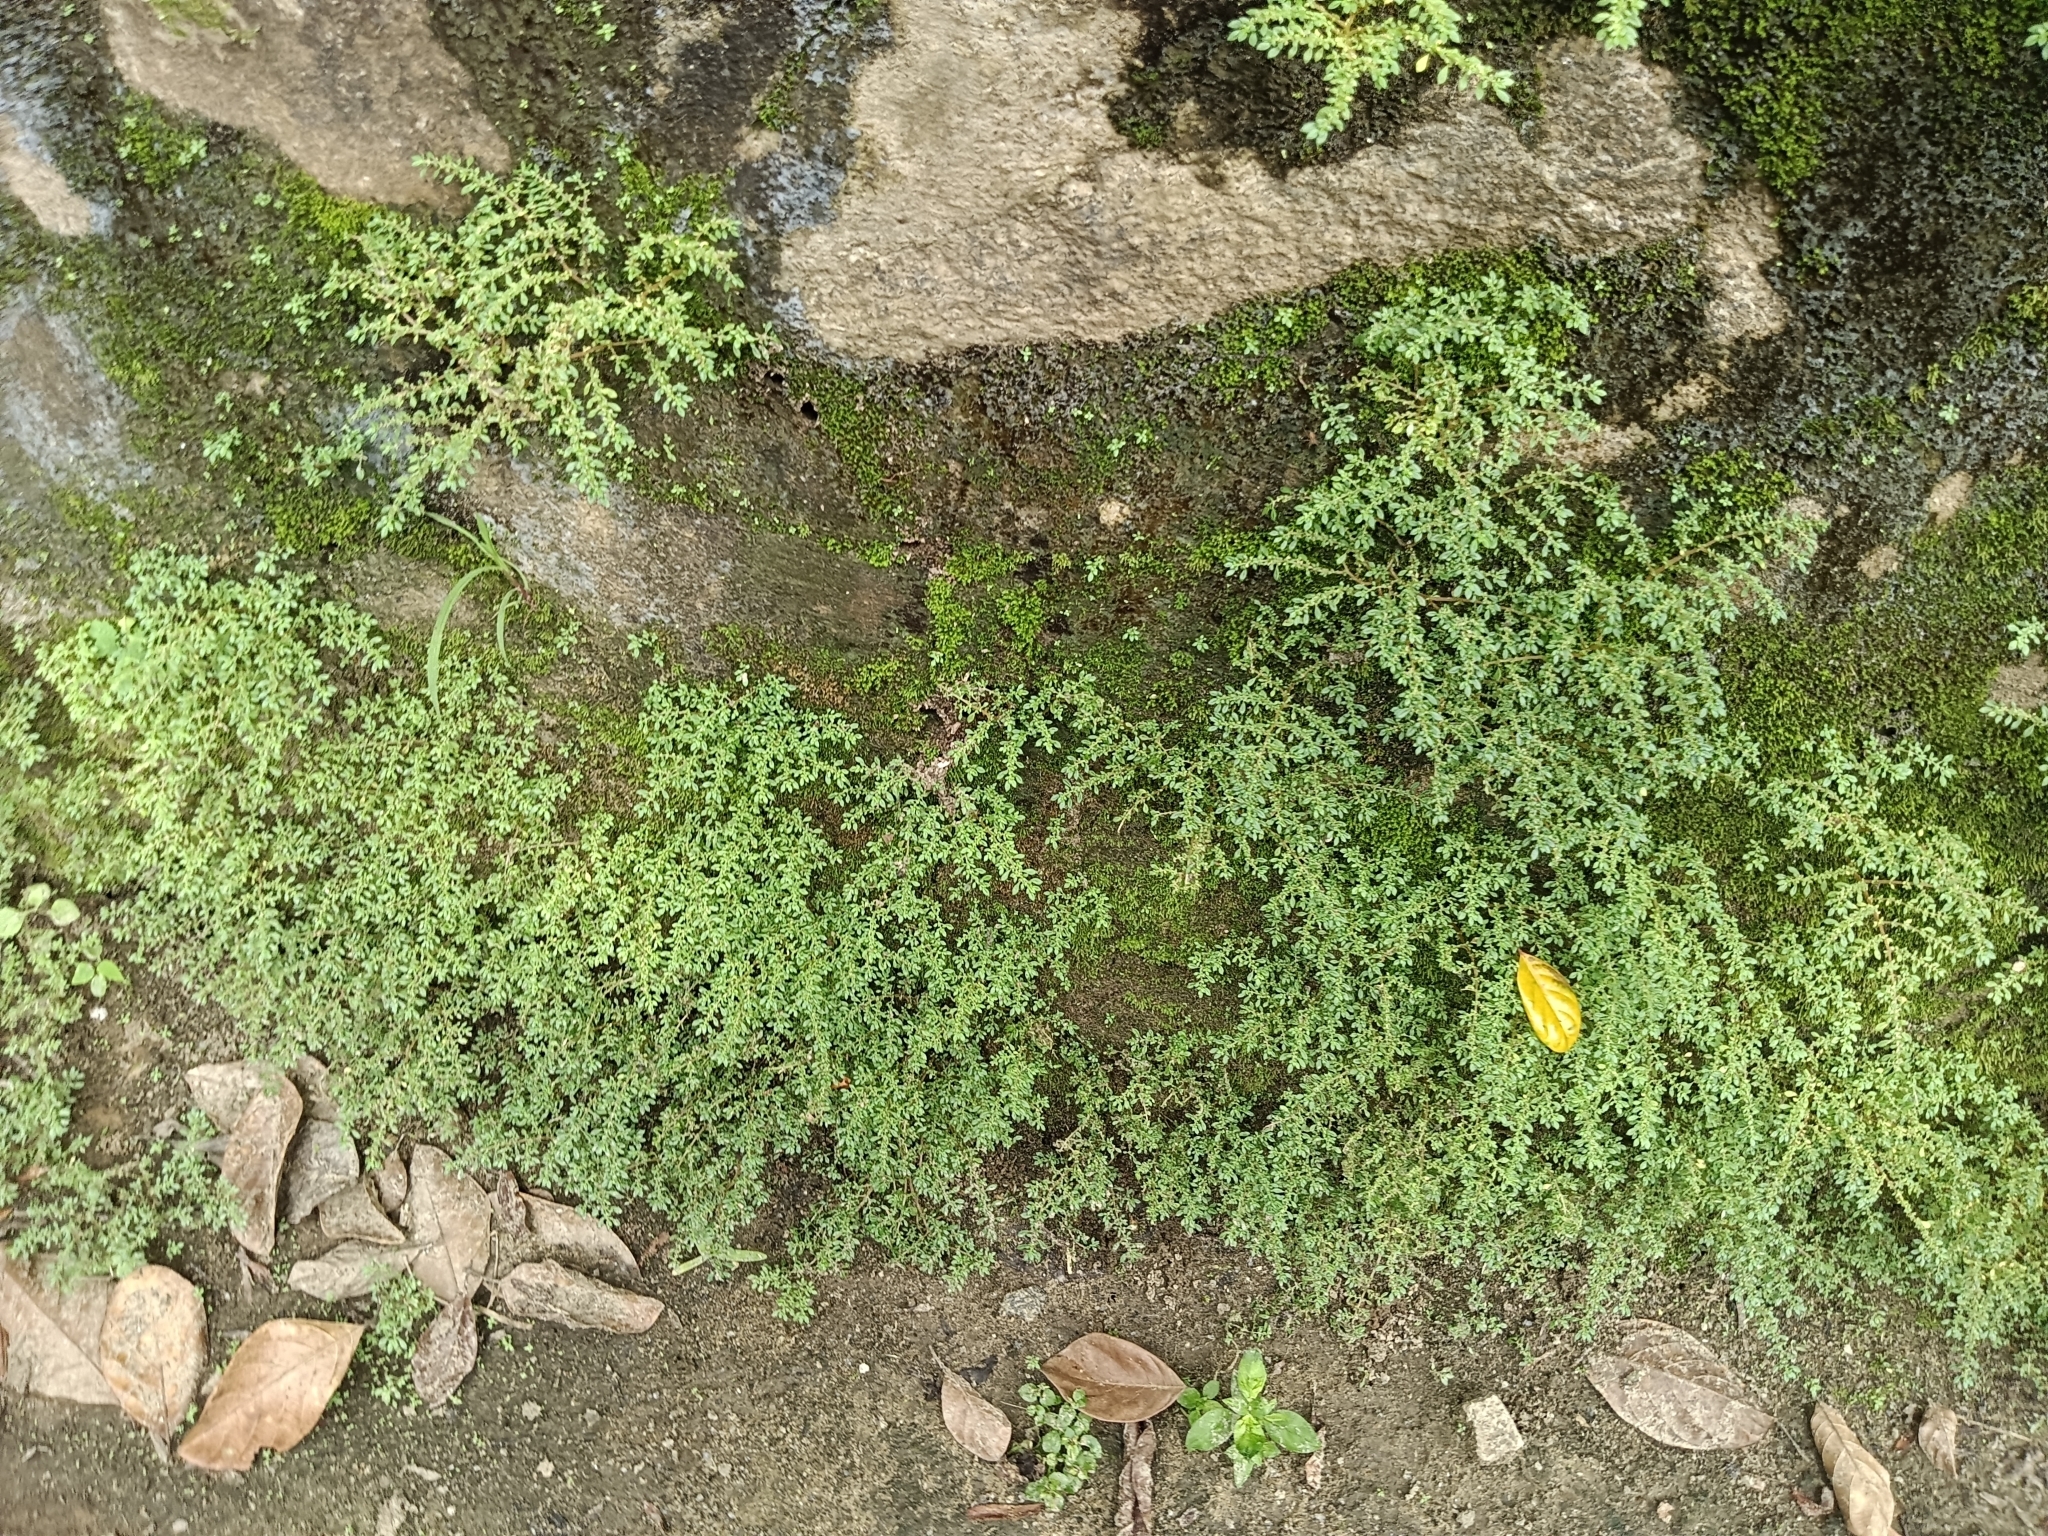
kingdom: Plantae
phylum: Tracheophyta
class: Magnoliopsida
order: Rosales
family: Urticaceae
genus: Pilea
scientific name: Pilea microphylla
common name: Artillery-plant
